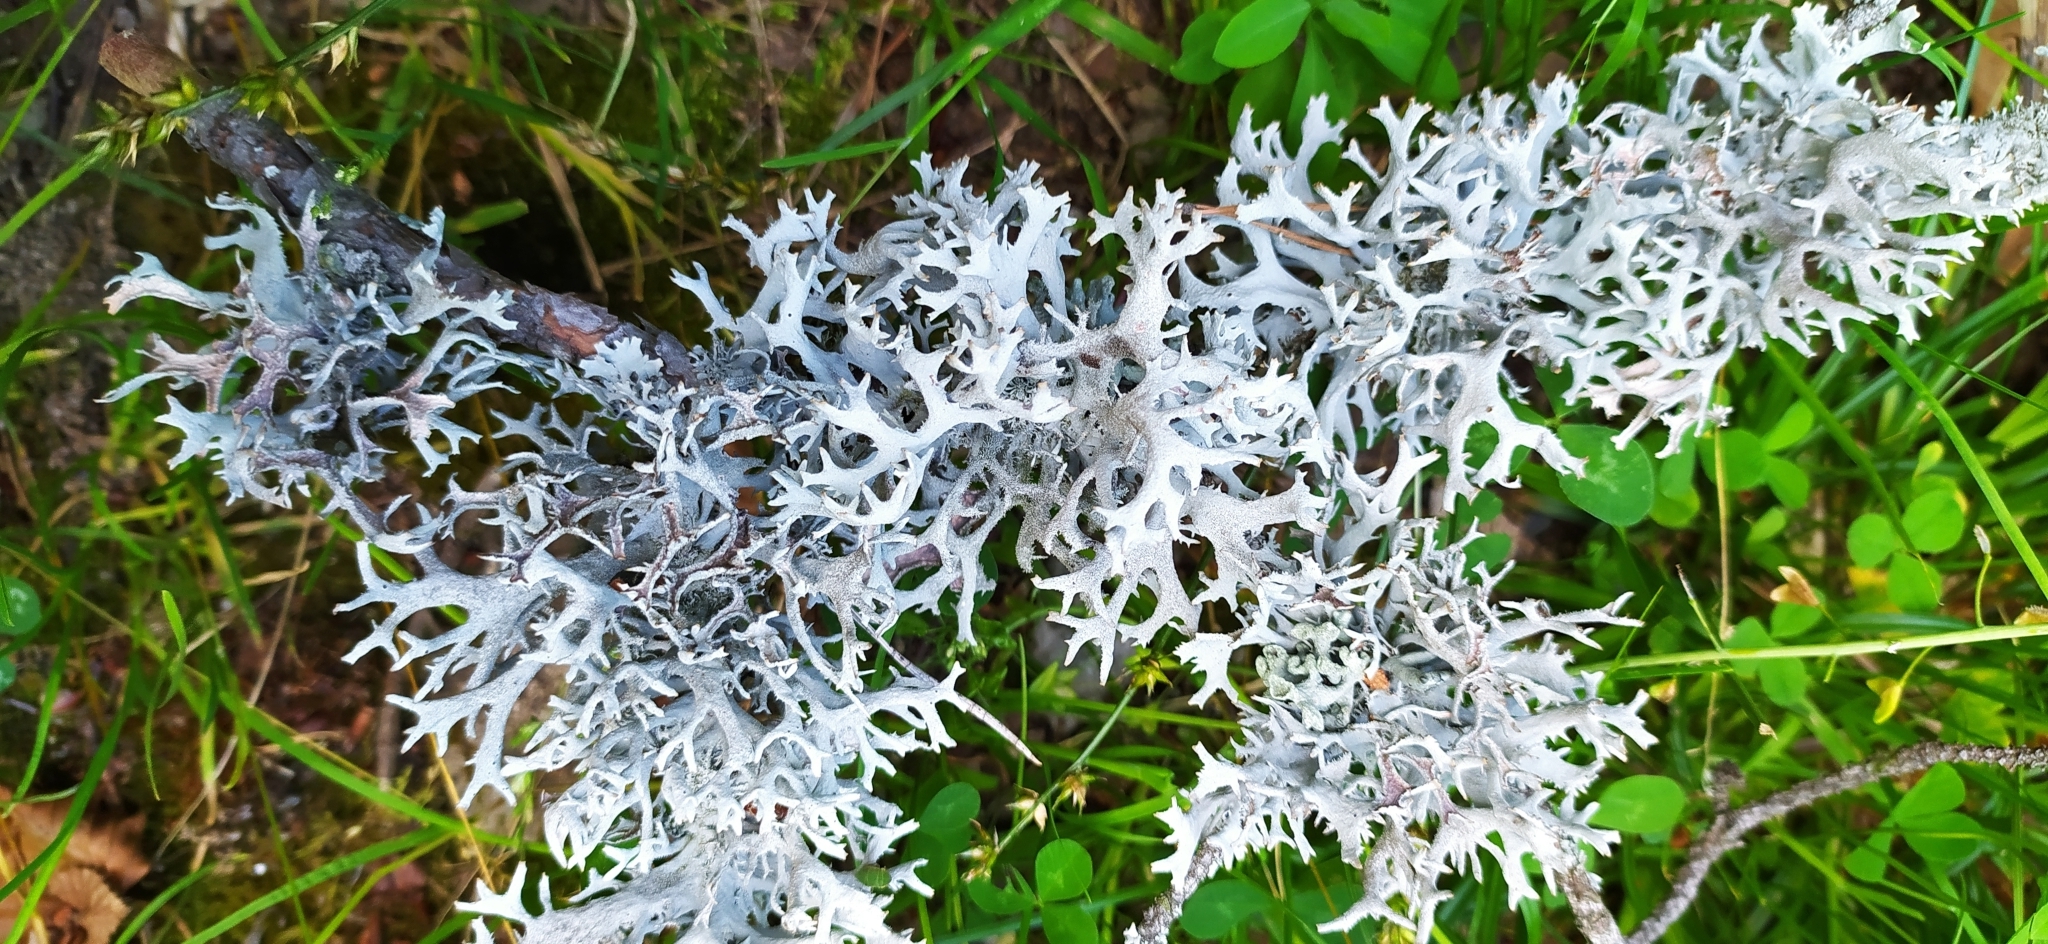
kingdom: Fungi
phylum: Ascomycota
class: Lecanoromycetes
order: Lecanorales
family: Parmeliaceae
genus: Pseudevernia
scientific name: Pseudevernia furfuracea
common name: Tree moss
